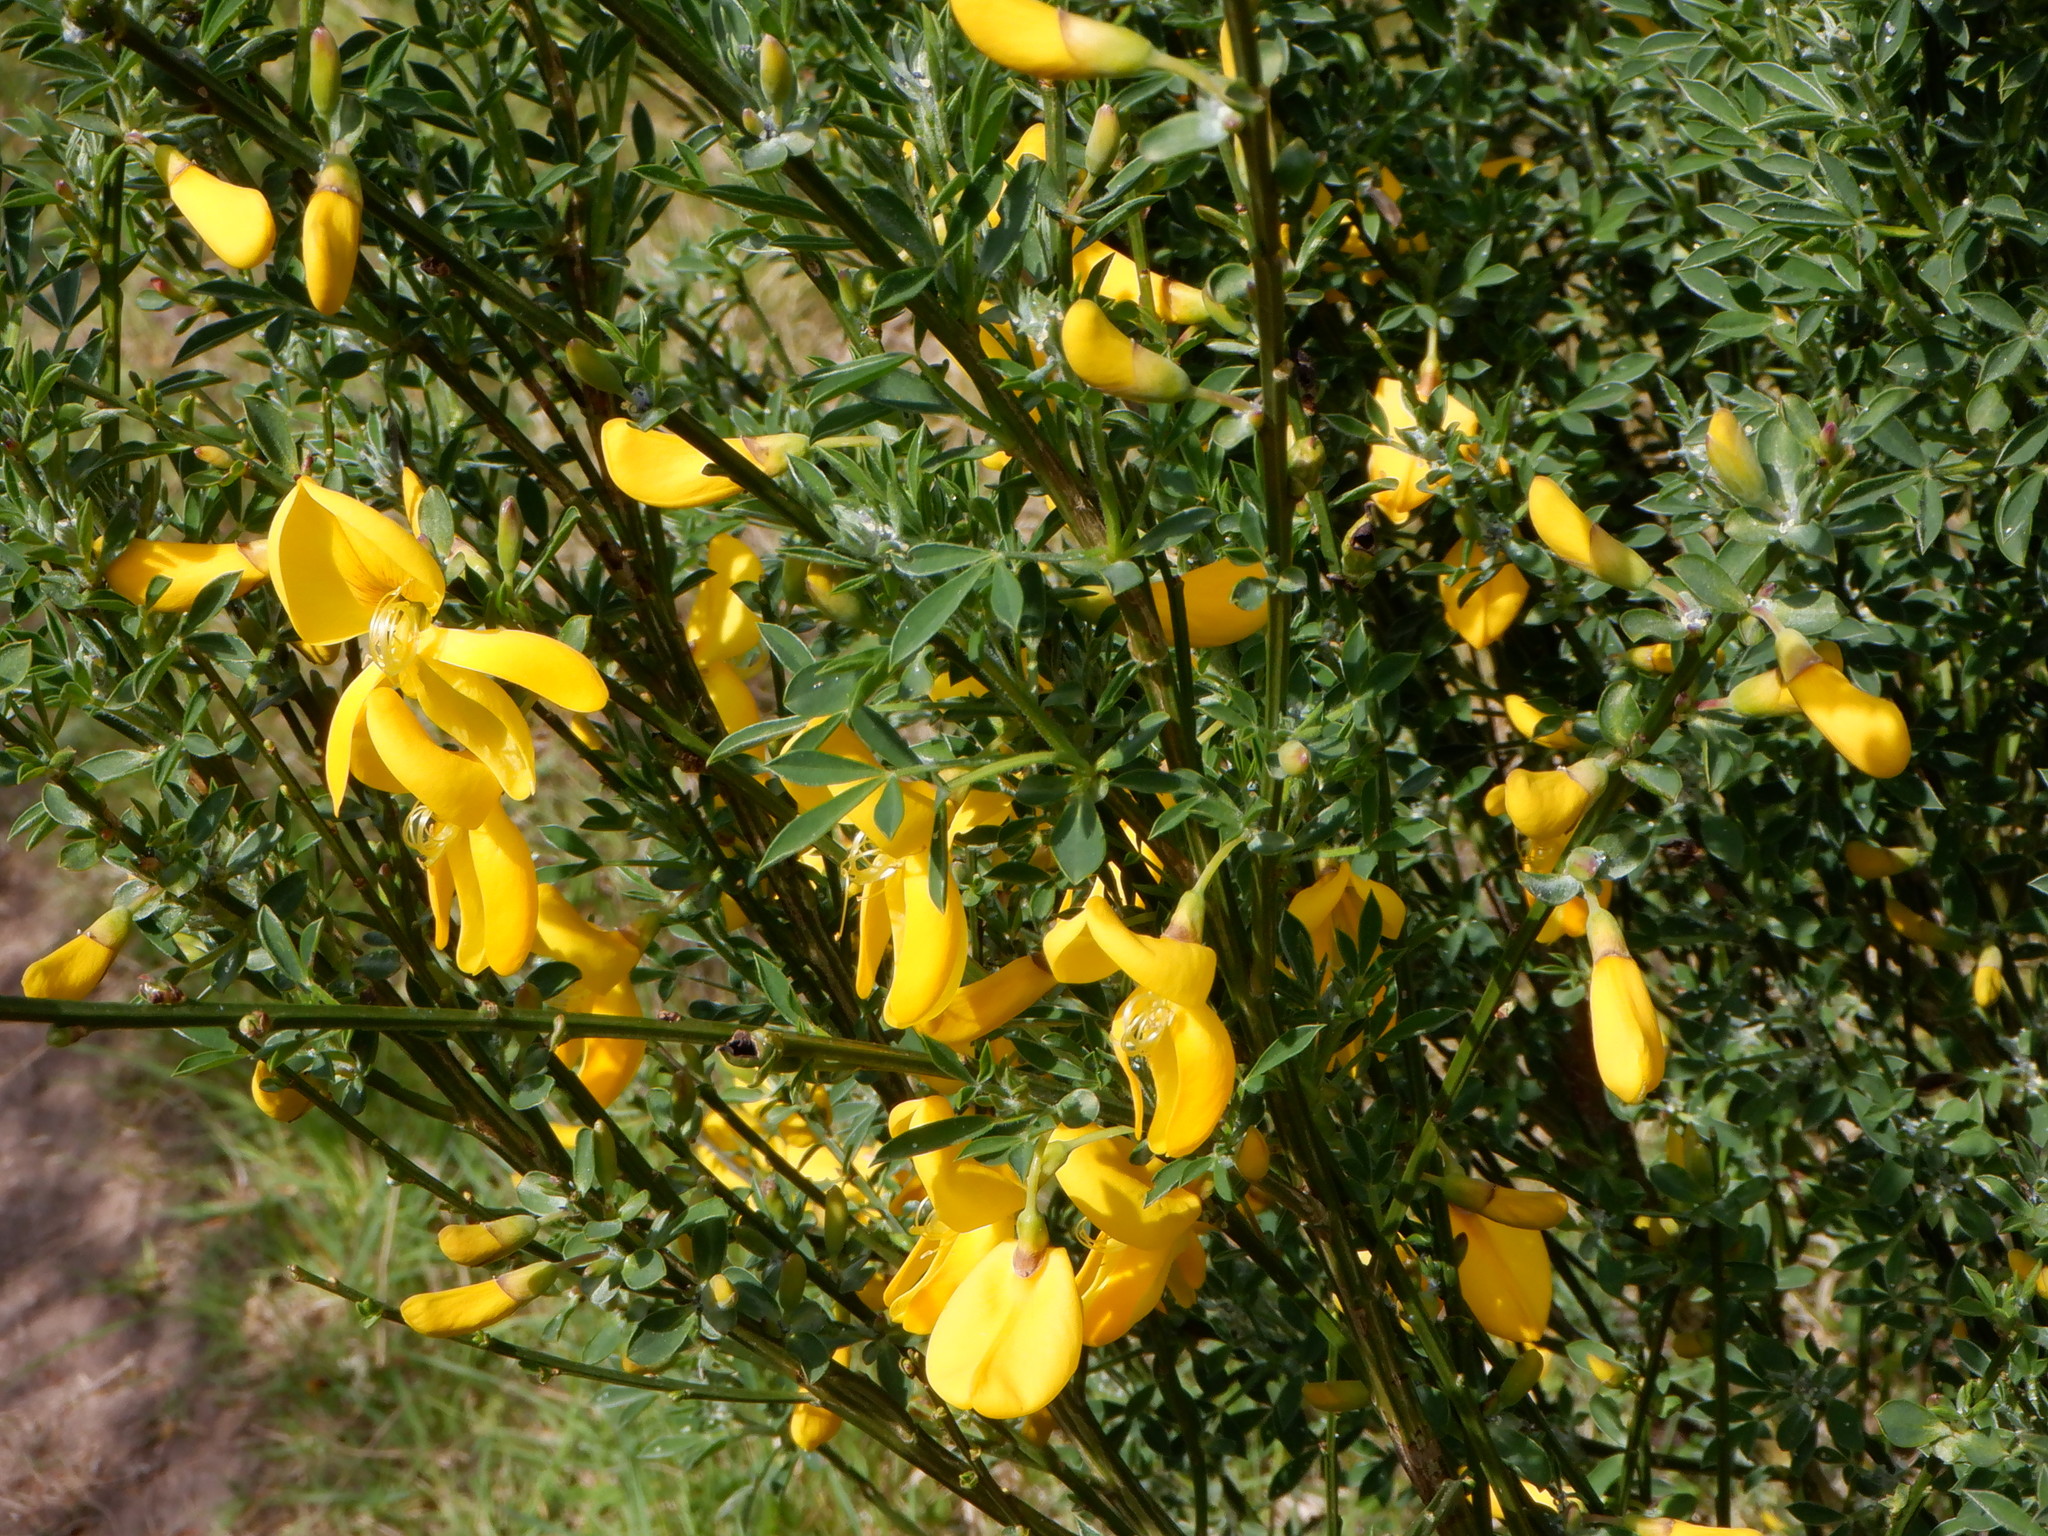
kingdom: Plantae
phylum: Tracheophyta
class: Magnoliopsida
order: Fabales
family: Fabaceae
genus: Cytisus
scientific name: Cytisus scoparius
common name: Scotch broom
